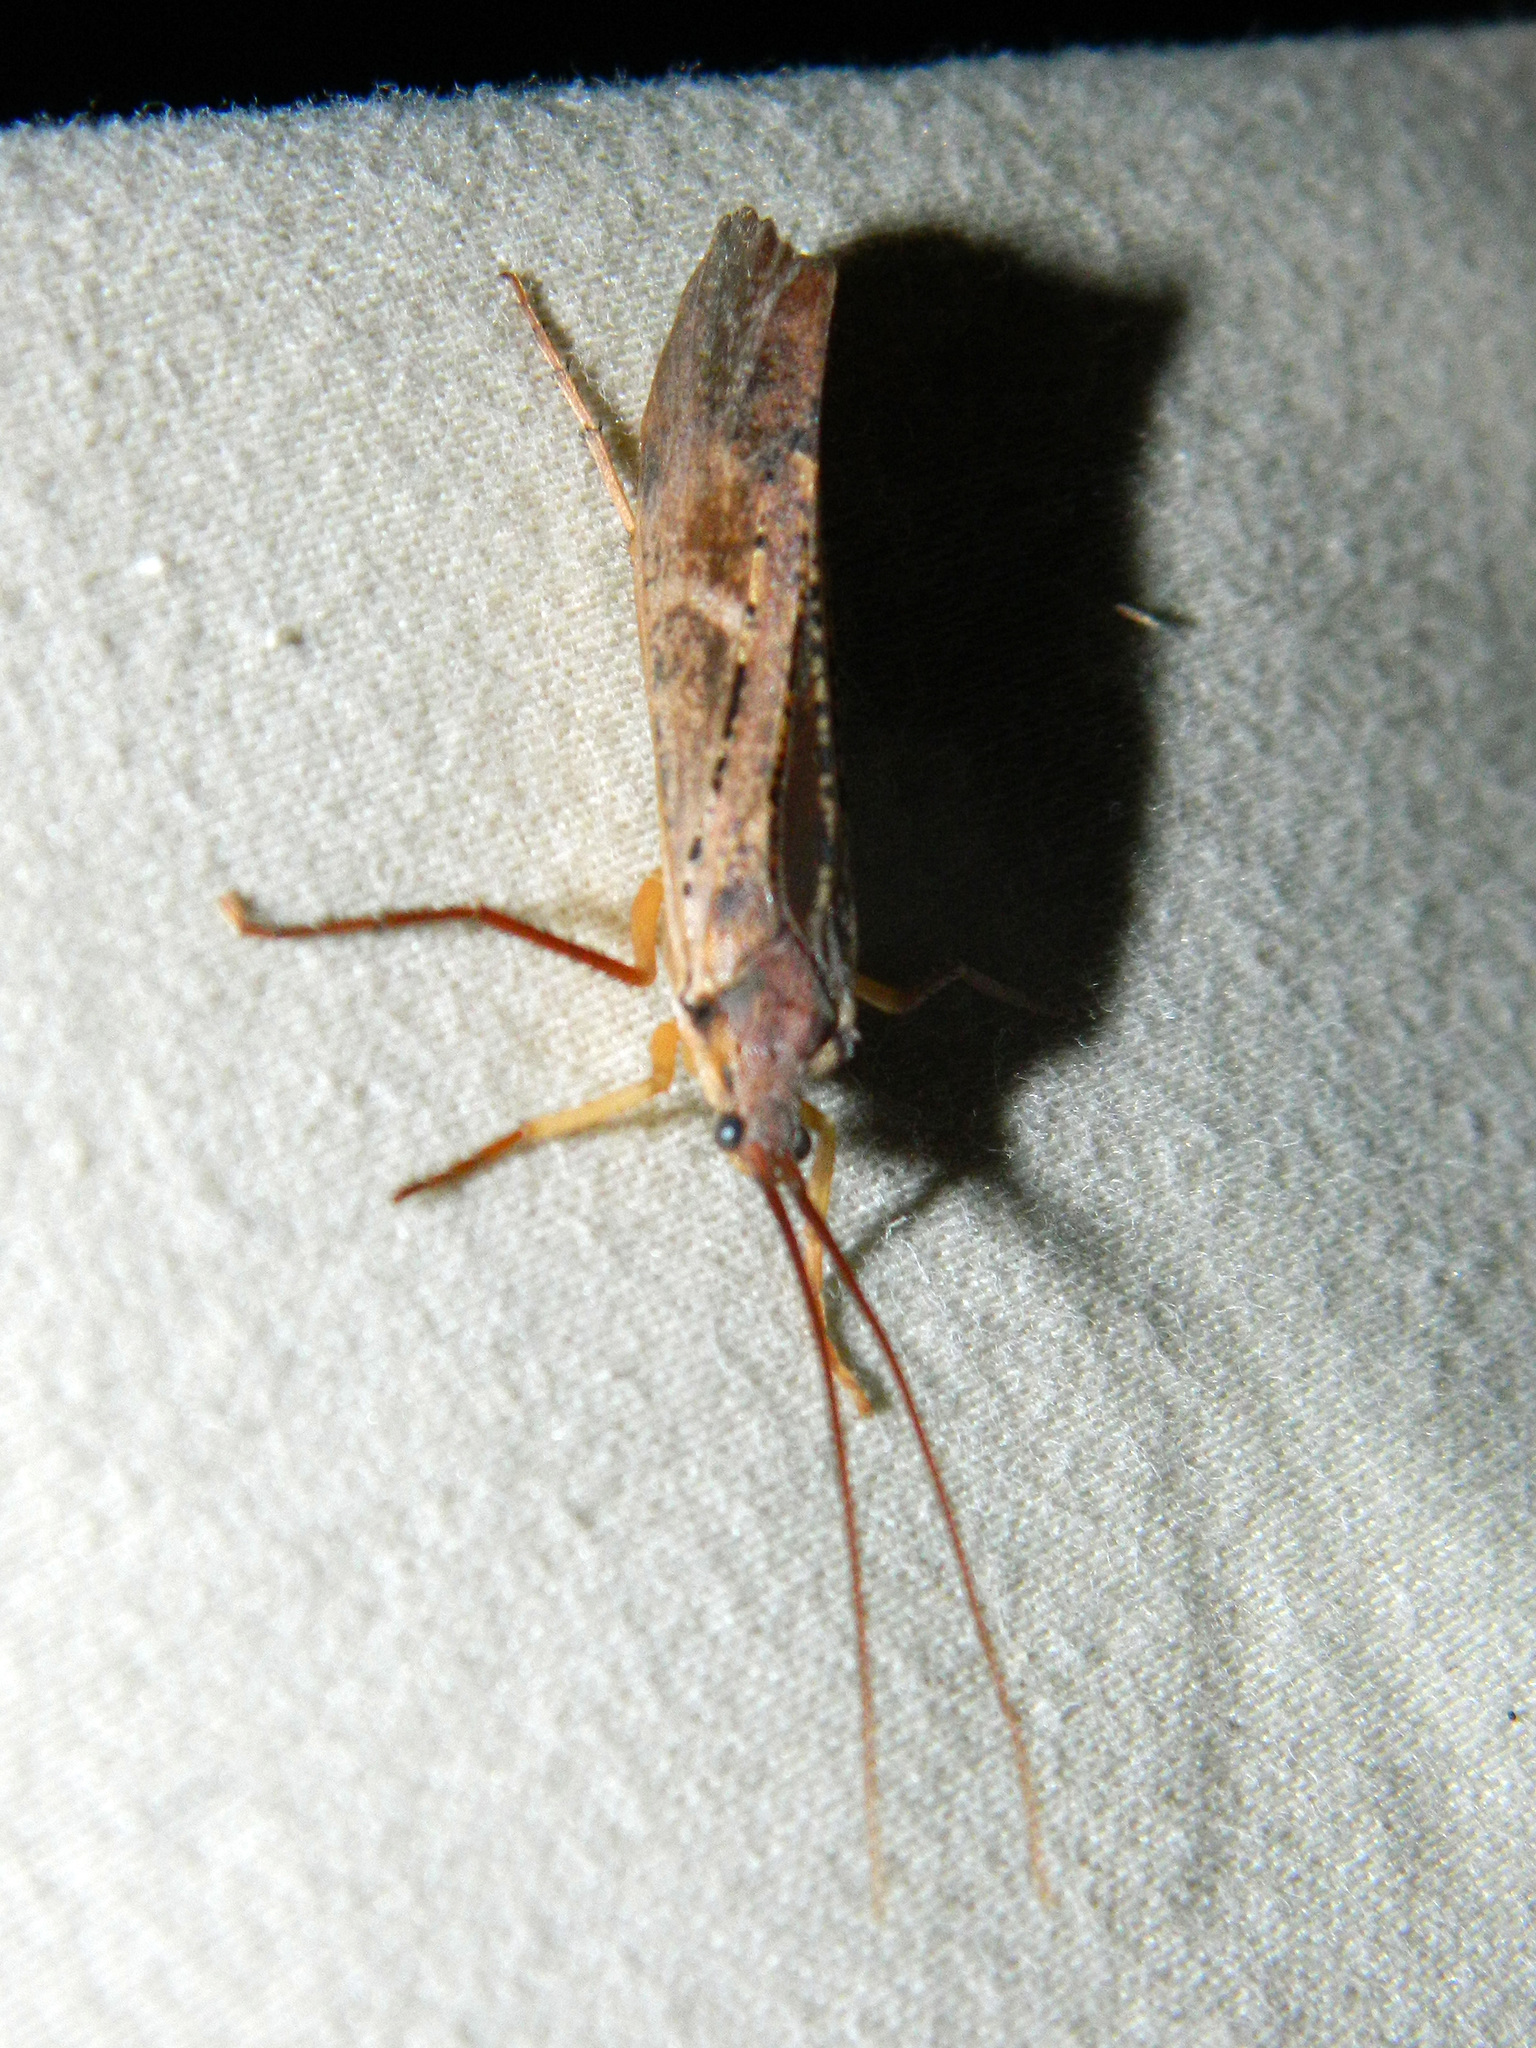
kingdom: Animalia
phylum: Arthropoda
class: Insecta
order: Trichoptera
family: Limnephilidae
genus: Nemotaulius
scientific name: Nemotaulius hostilis
